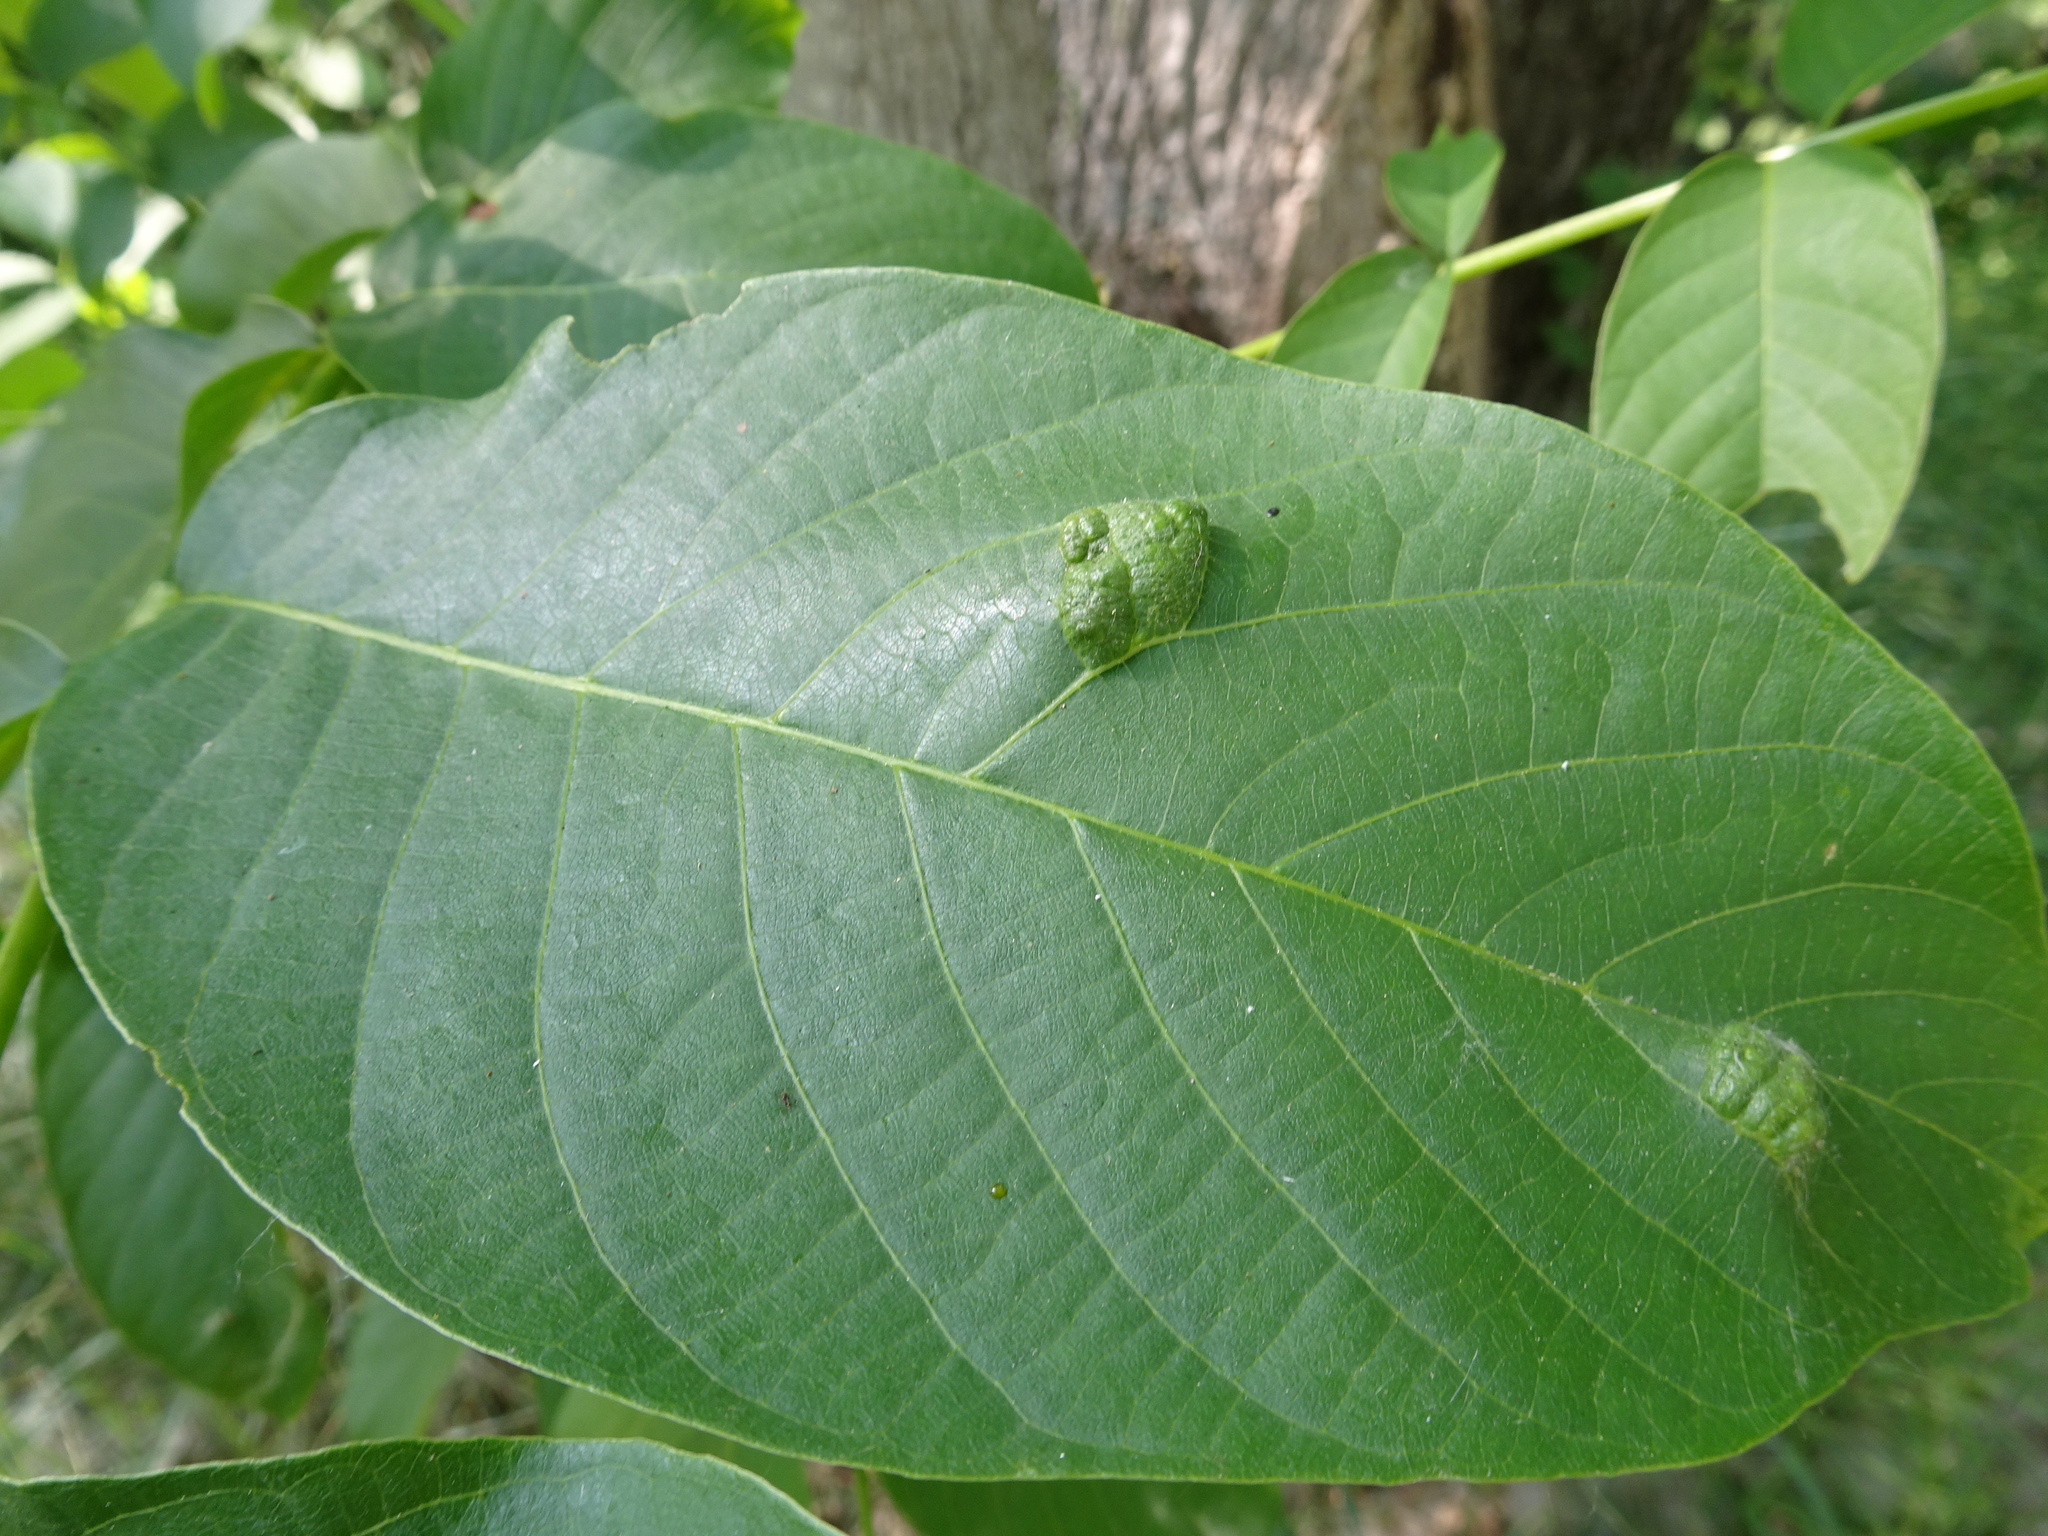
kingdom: Animalia
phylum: Arthropoda
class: Arachnida
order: Trombidiformes
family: Eriophyidae
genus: Aceria
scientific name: Aceria erinea
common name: Persian walnut erineum mite
